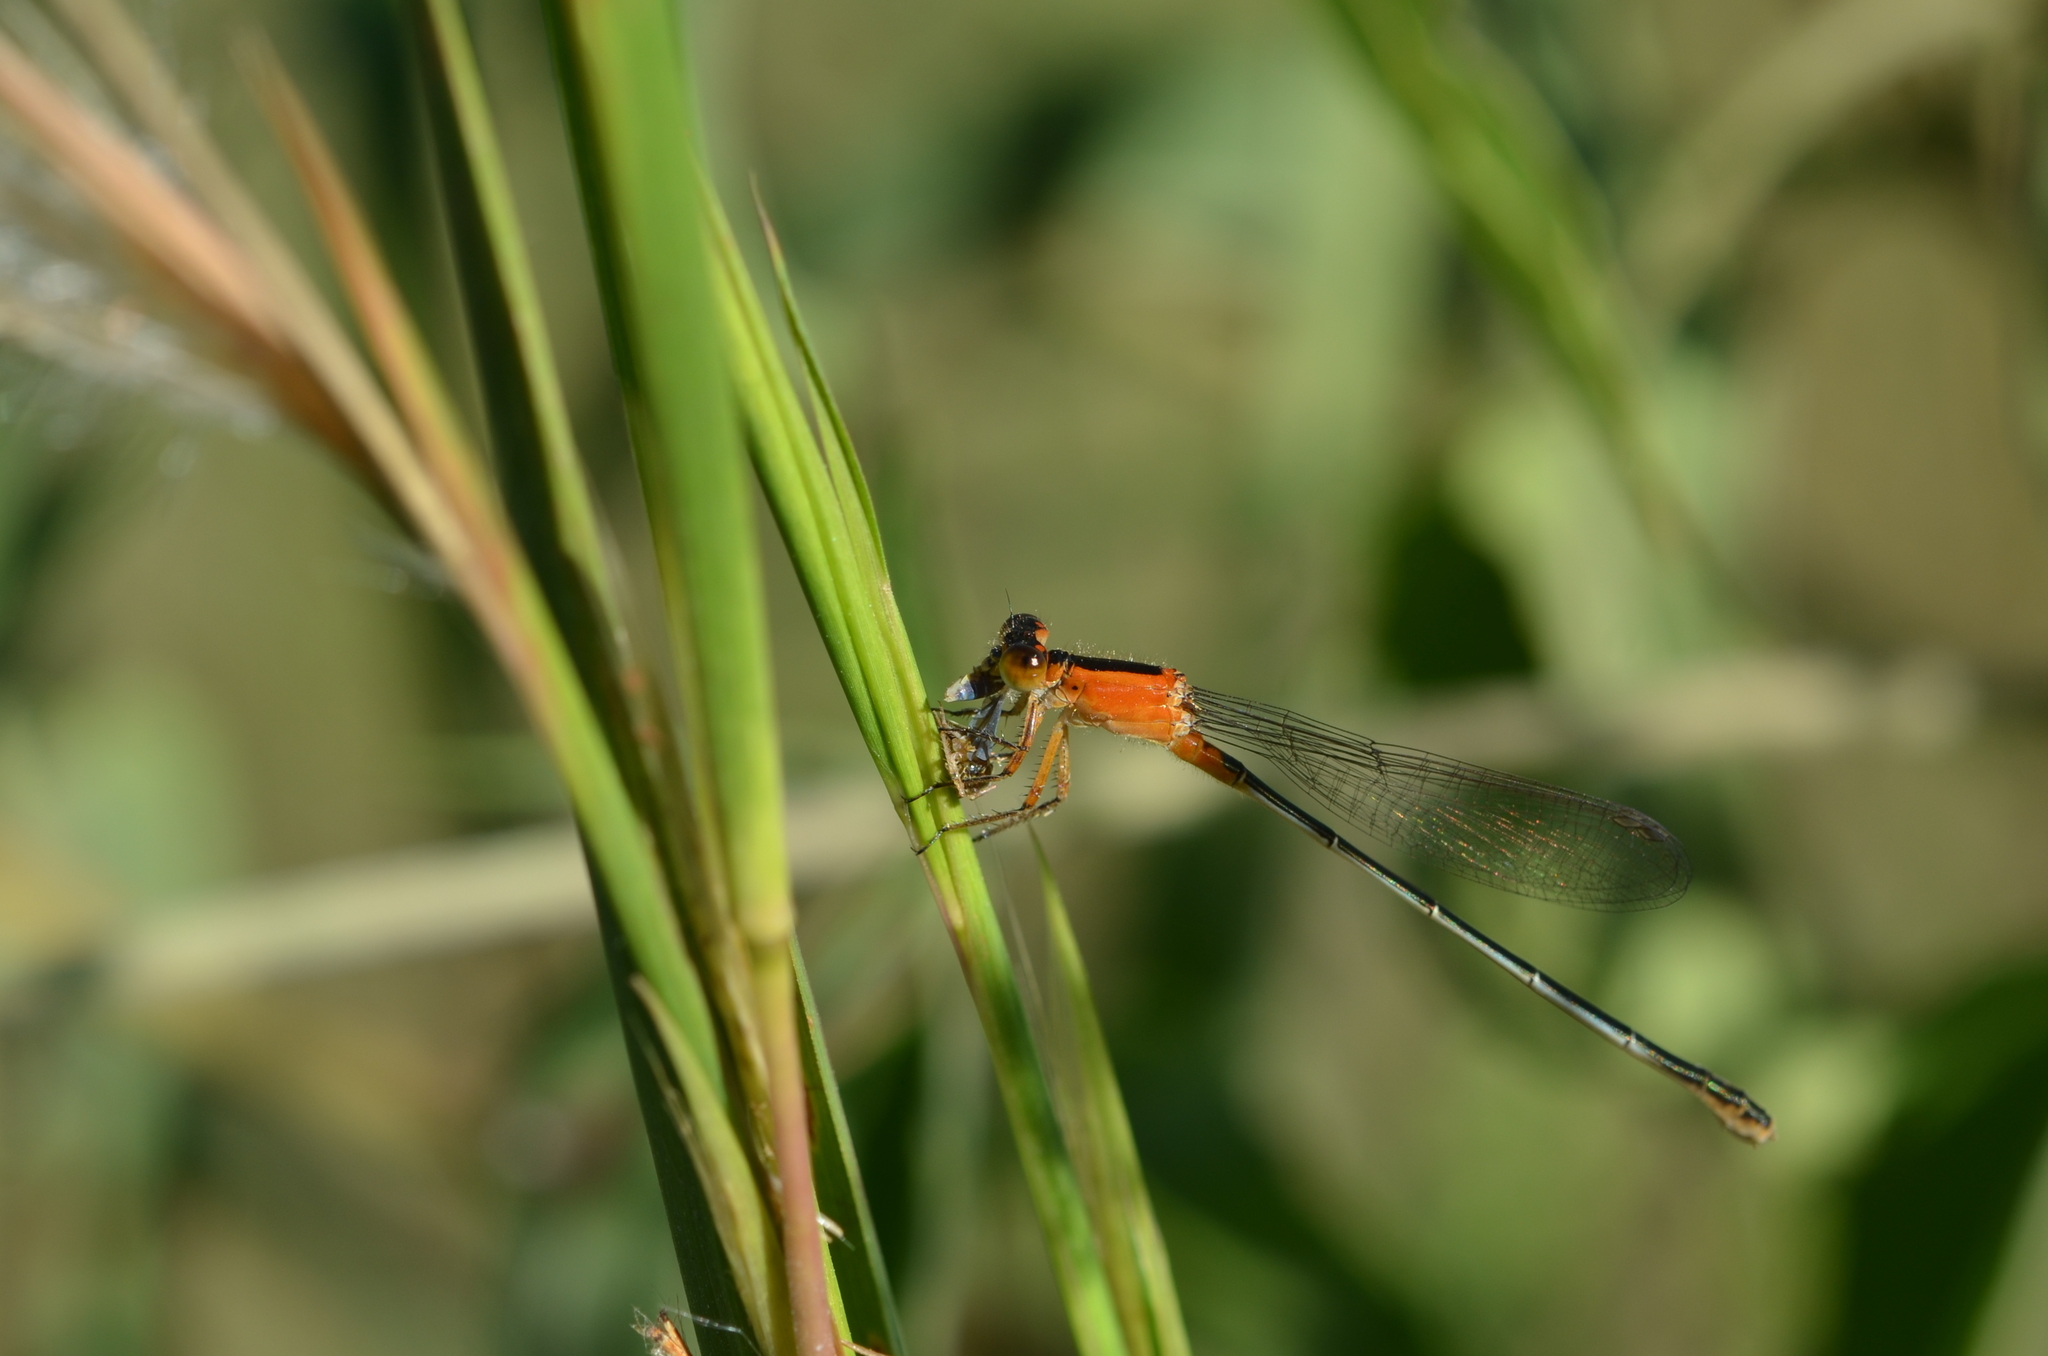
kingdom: Animalia
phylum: Arthropoda
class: Insecta
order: Odonata
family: Coenagrionidae
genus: Ischnura
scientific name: Ischnura ramburii
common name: Rambur's forktail
